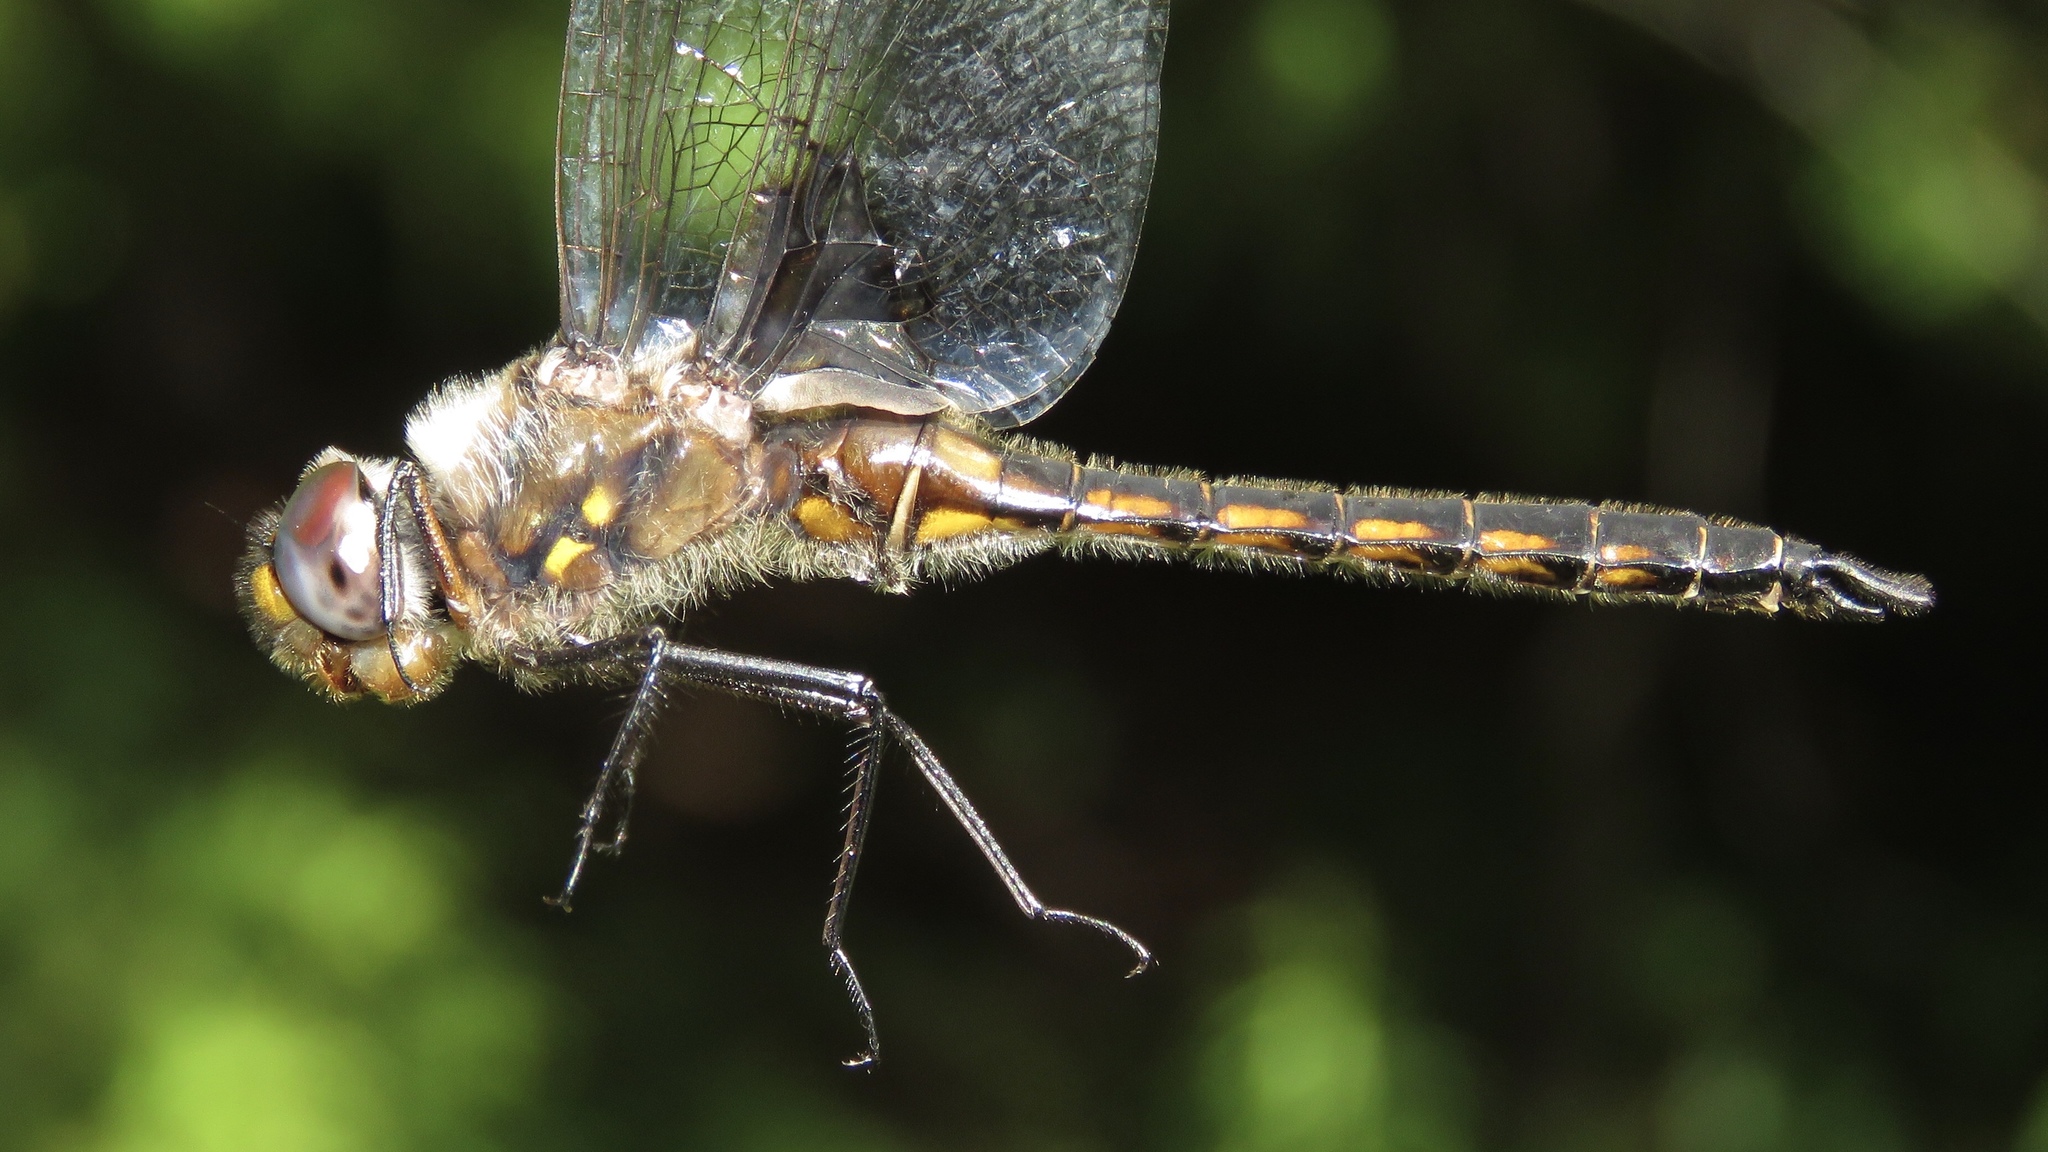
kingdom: Animalia
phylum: Arthropoda
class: Insecta
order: Odonata
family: Corduliidae
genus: Epitheca
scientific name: Epitheca spinigera
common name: Spiny baskettail
